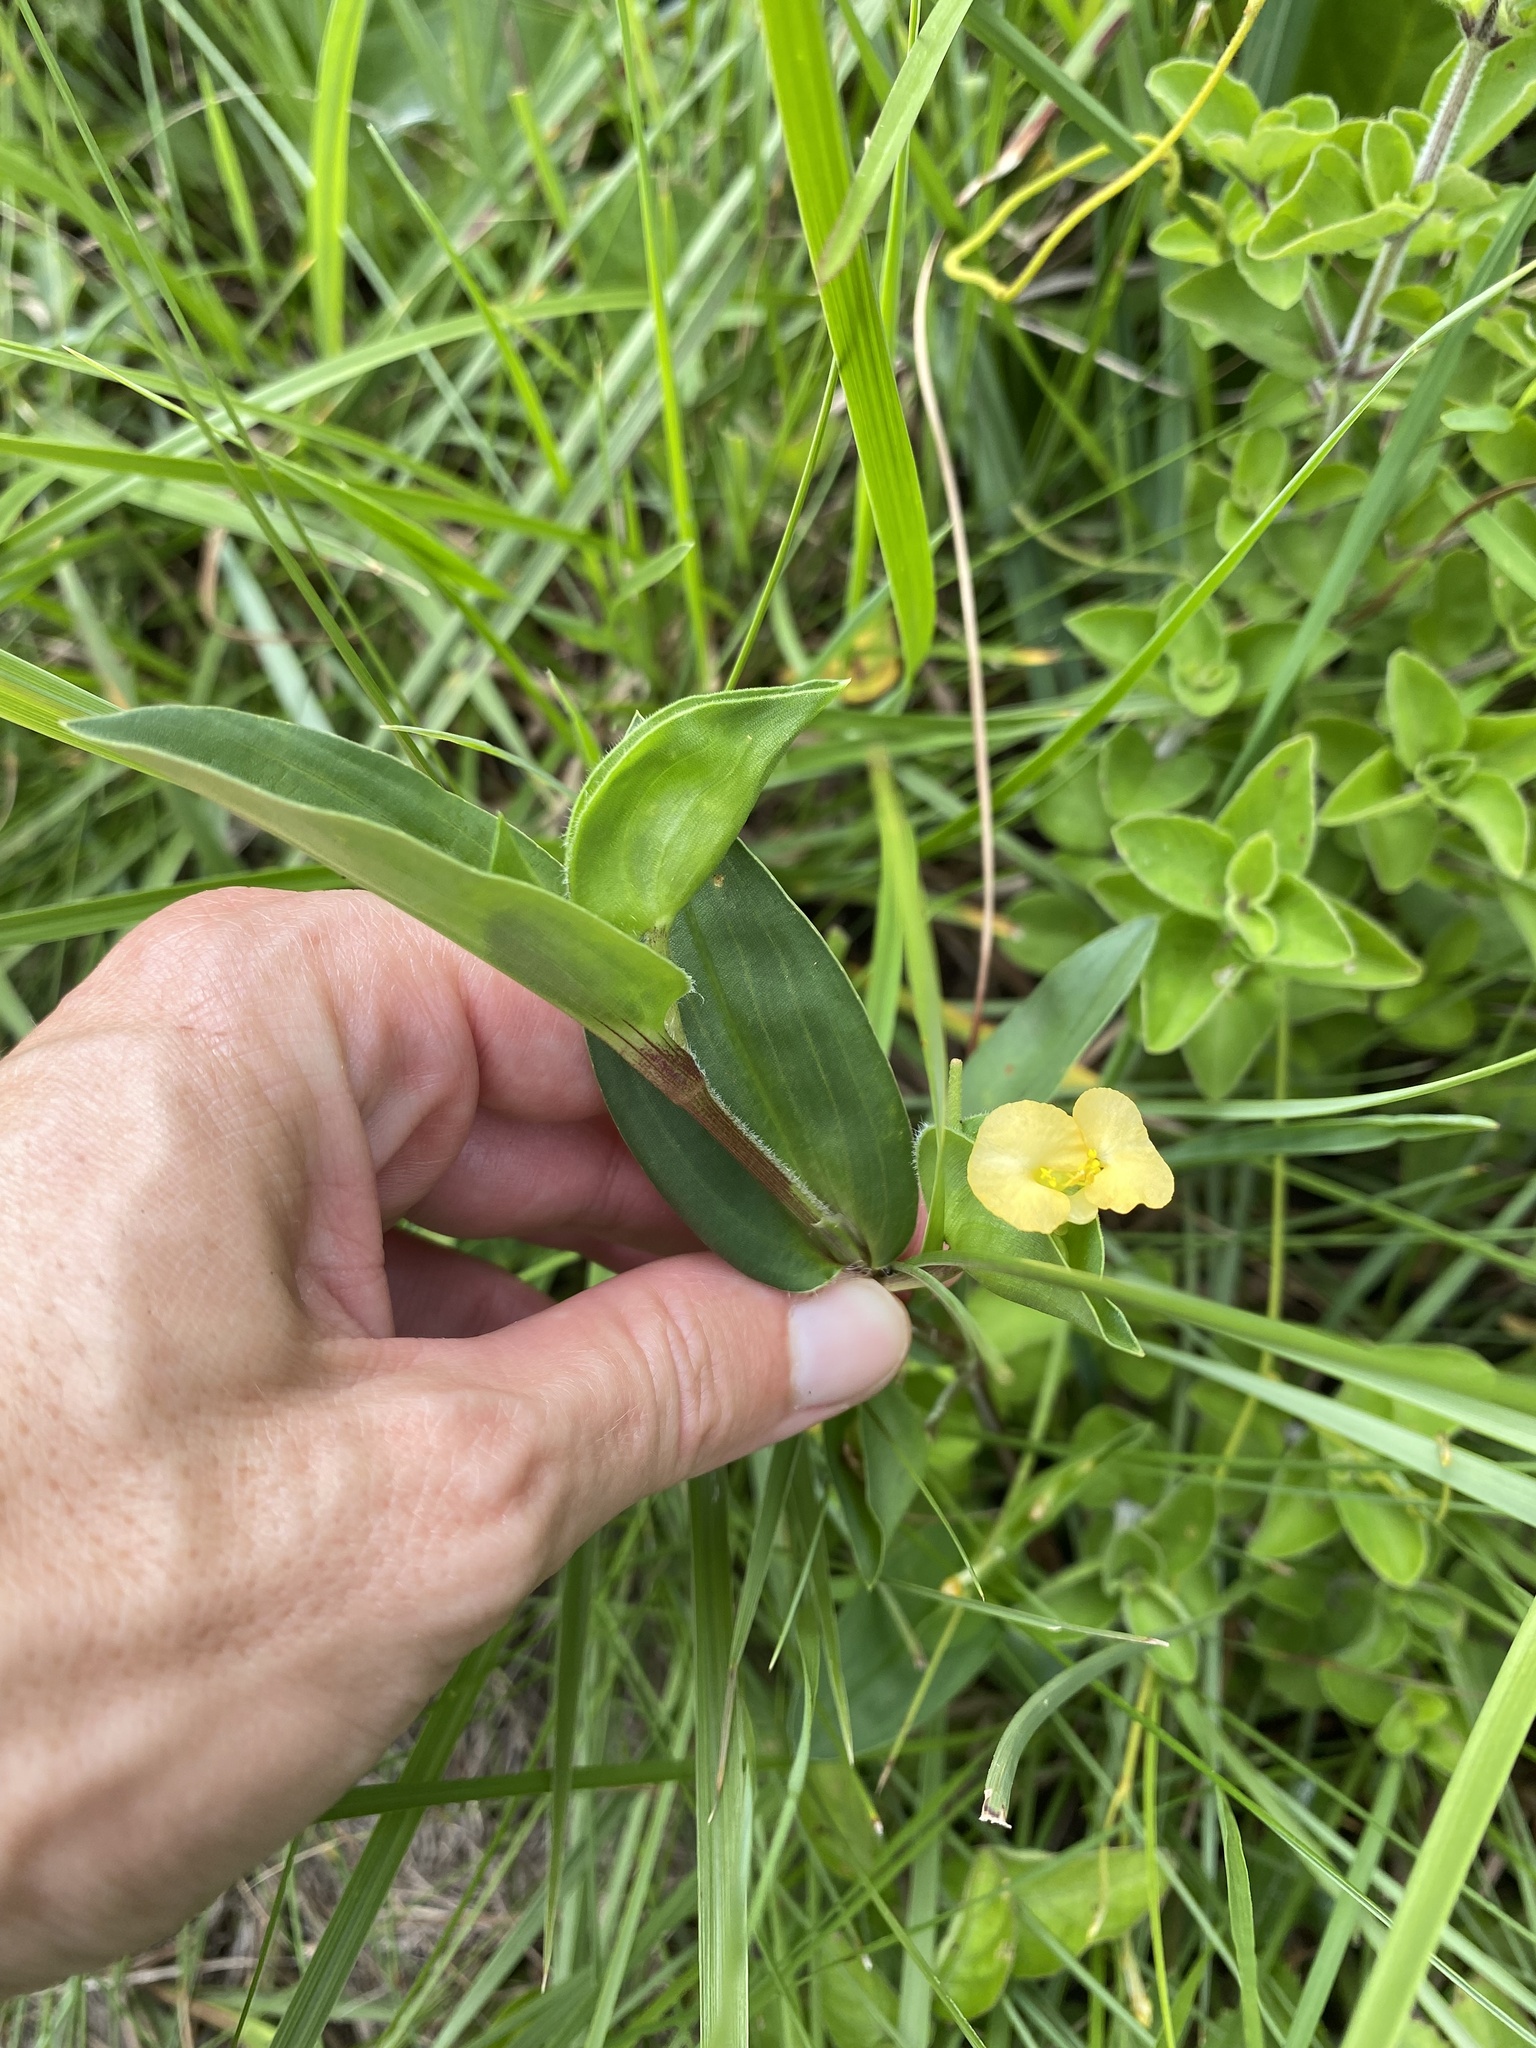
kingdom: Plantae
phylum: Tracheophyta
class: Liliopsida
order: Commelinales
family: Commelinaceae
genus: Commelina
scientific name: Commelina africana
